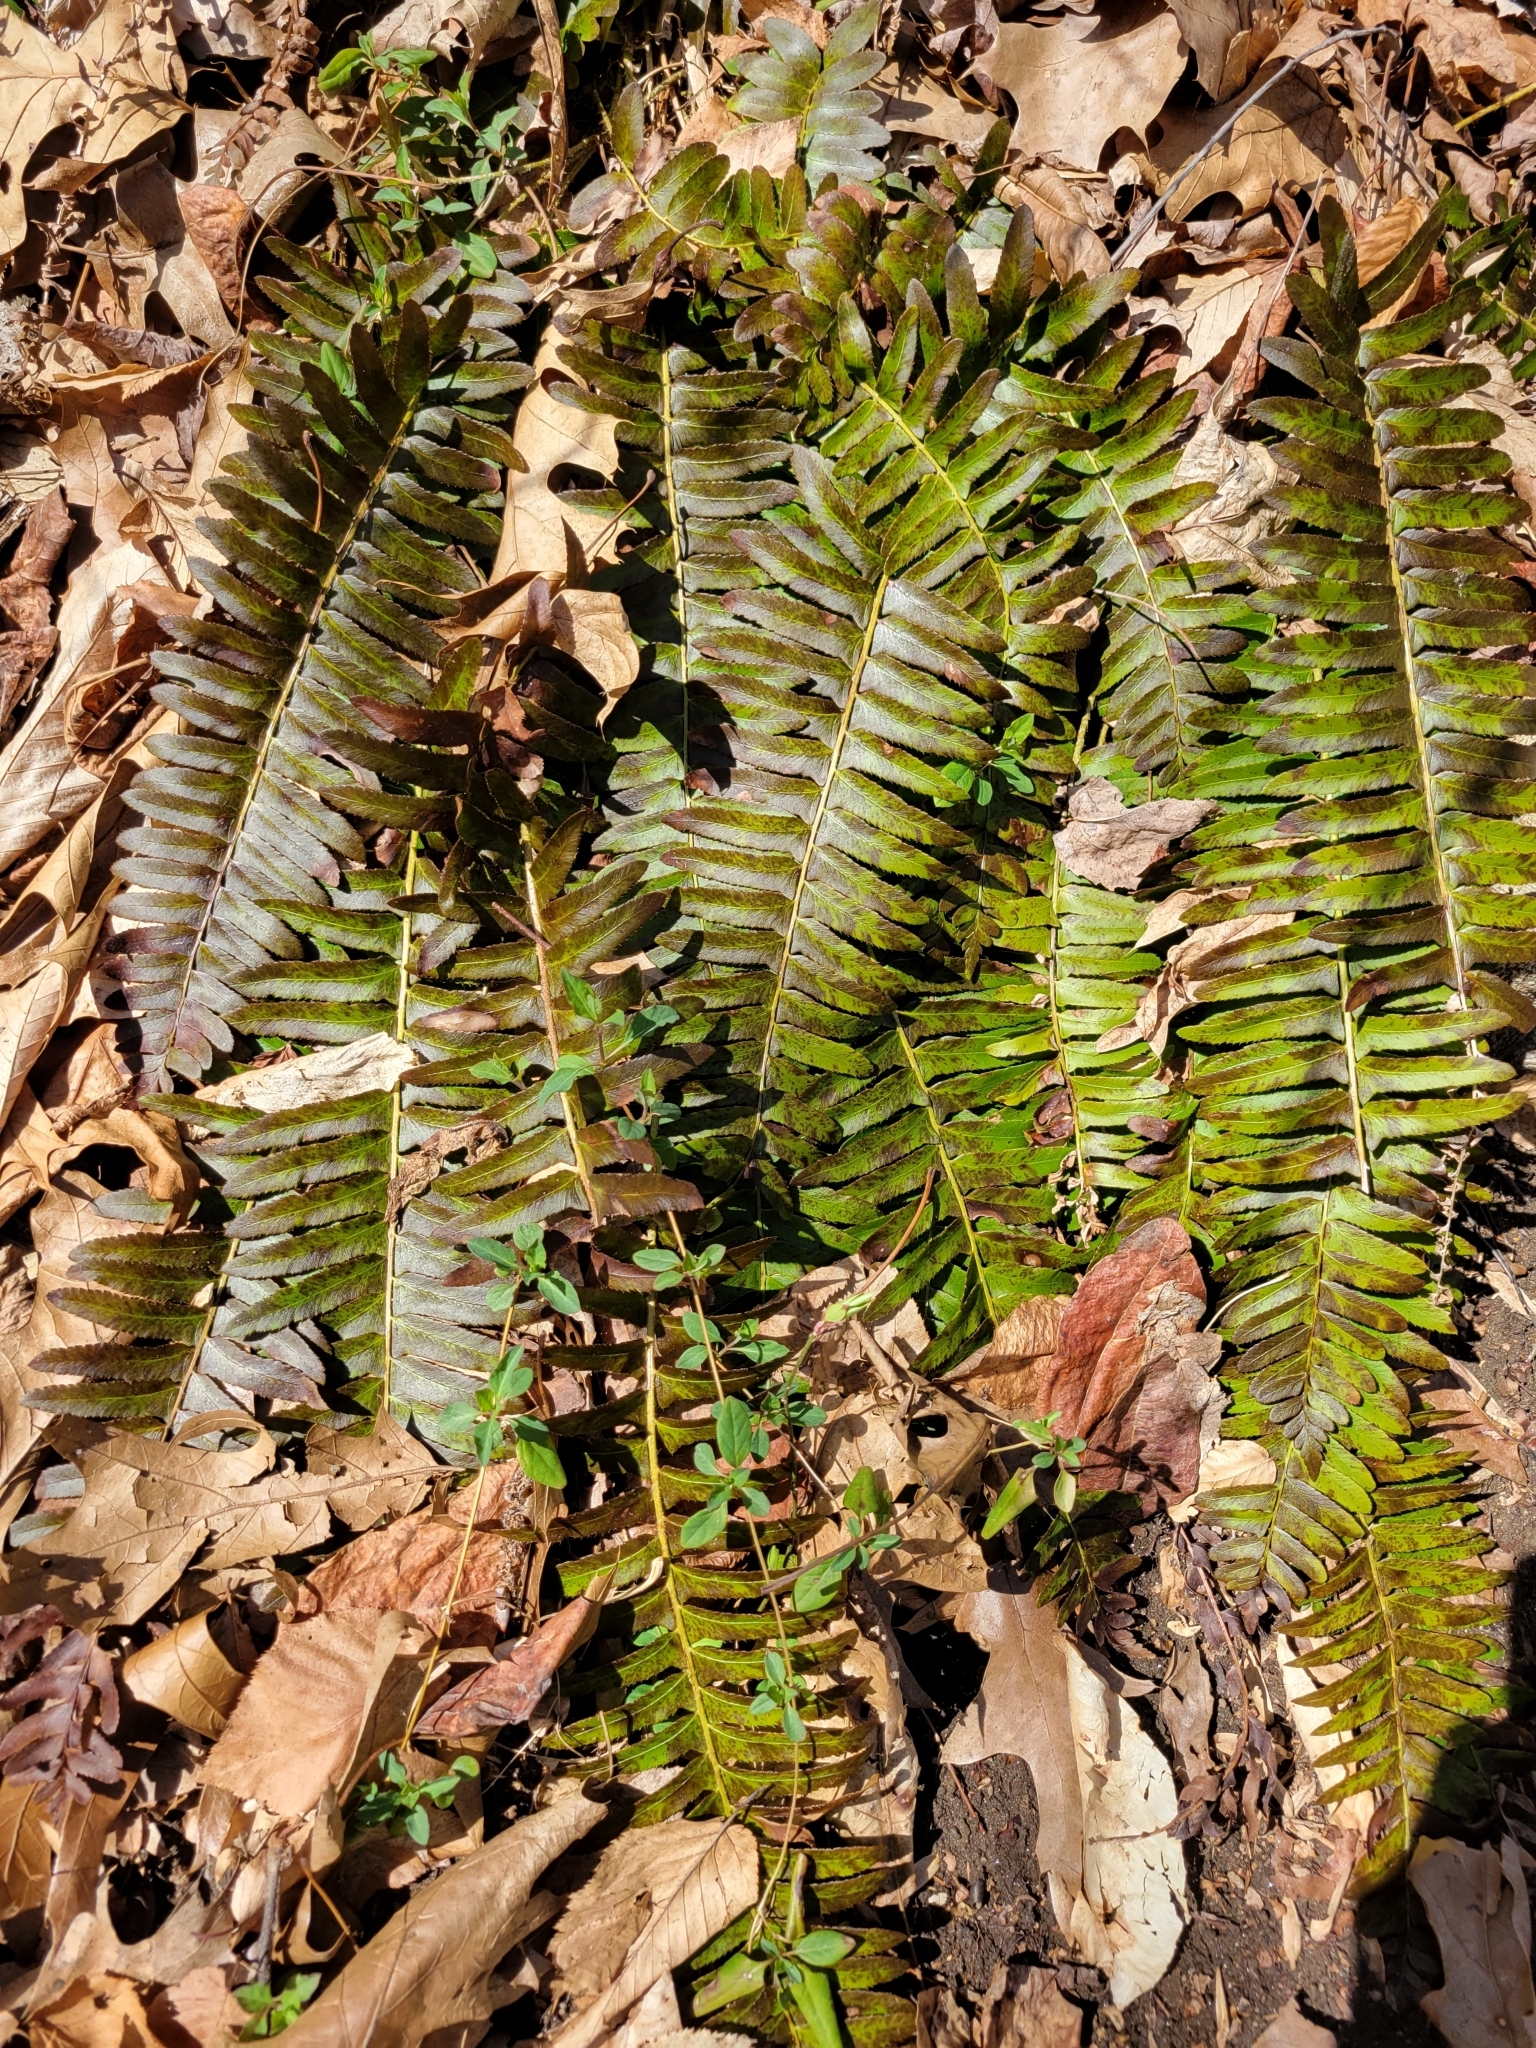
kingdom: Plantae
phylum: Tracheophyta
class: Polypodiopsida
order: Polypodiales
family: Dryopteridaceae
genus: Polystichum
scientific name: Polystichum acrostichoides
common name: Christmas fern
